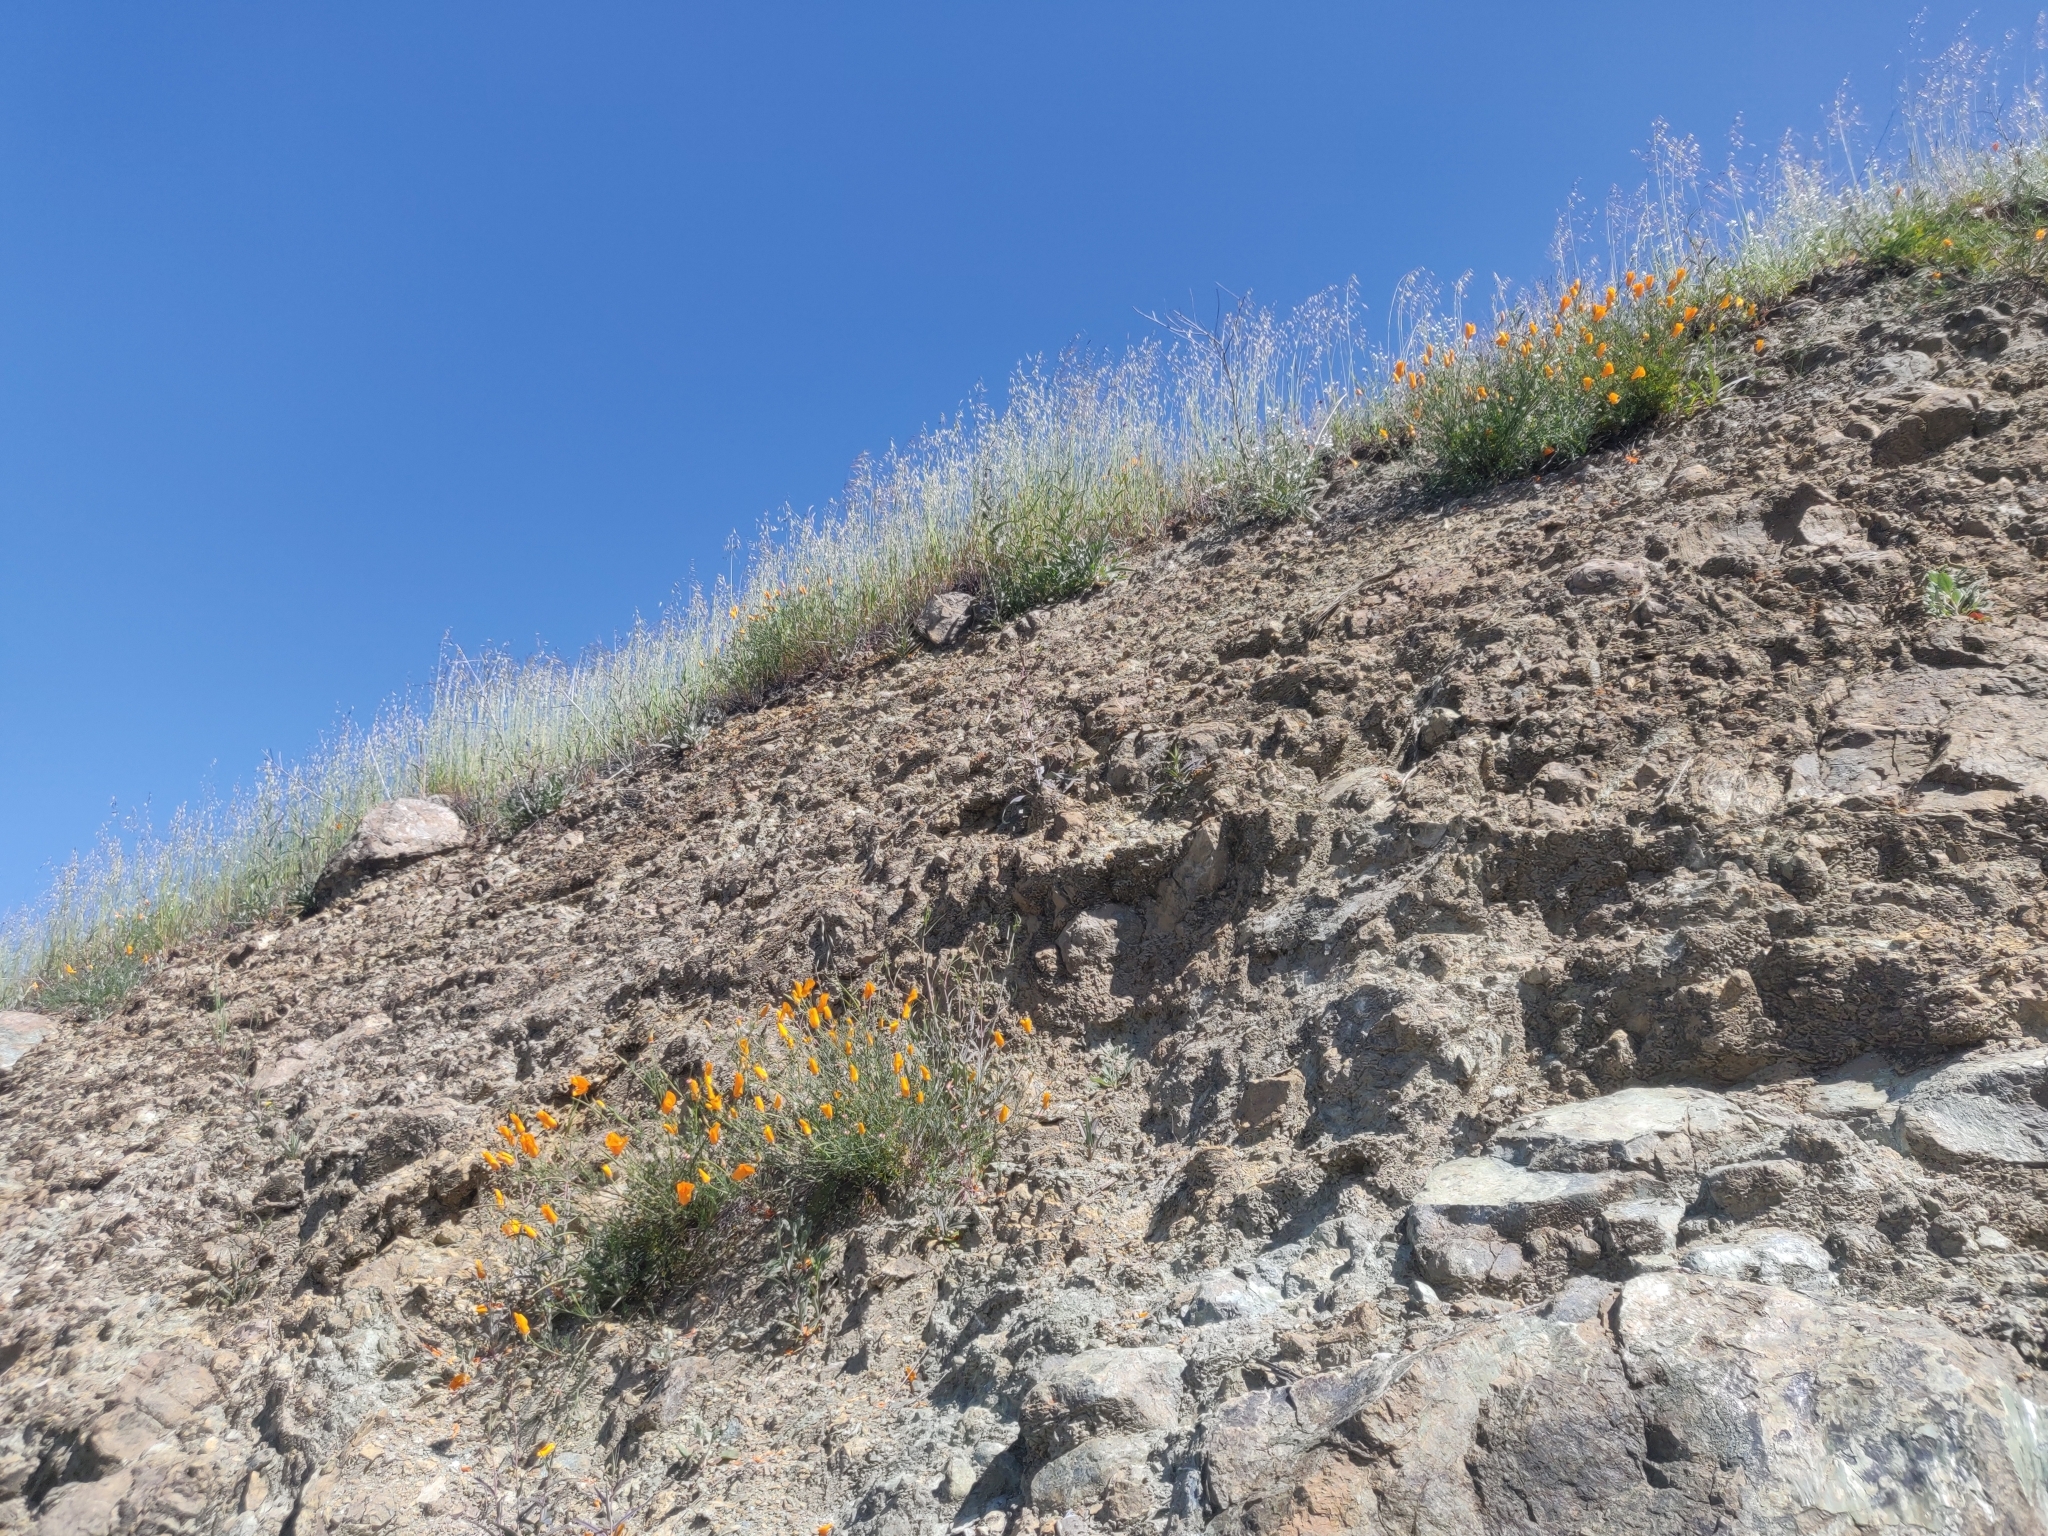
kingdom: Plantae
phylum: Tracheophyta
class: Magnoliopsida
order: Brassicales
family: Brassicaceae
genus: Streptanthus
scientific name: Streptanthus glandulosus
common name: Jewel-flower
